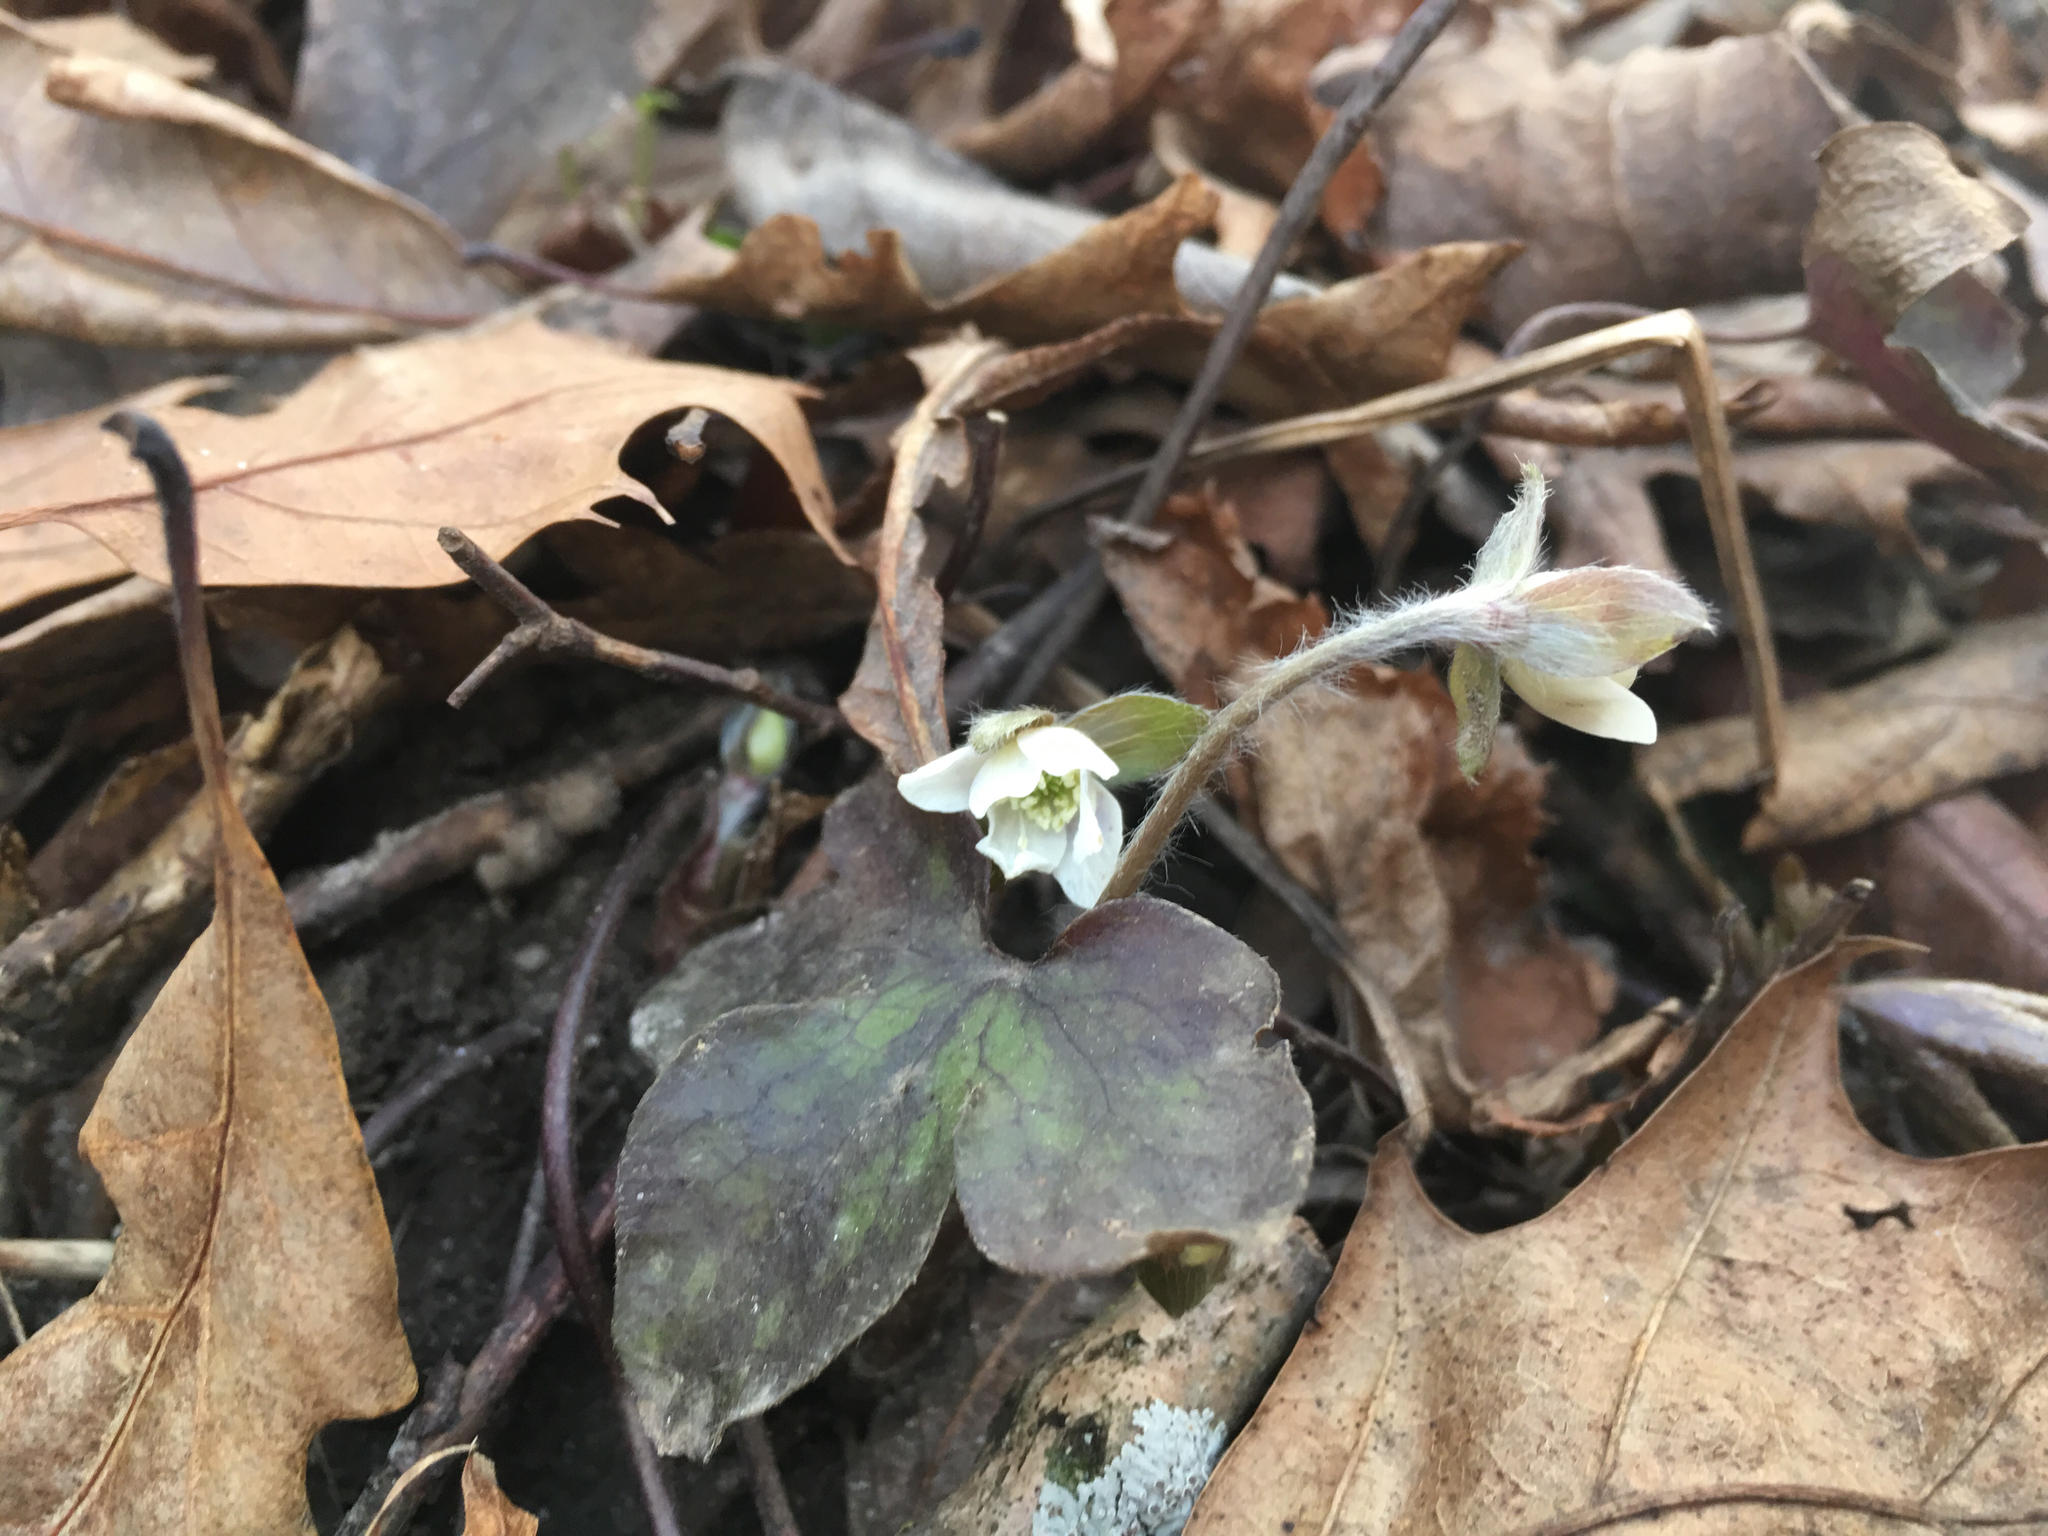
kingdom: Plantae
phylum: Tracheophyta
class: Magnoliopsida
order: Ranunculales
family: Ranunculaceae
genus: Hepatica
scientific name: Hepatica acutiloba
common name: Sharp-lobed hepatica
